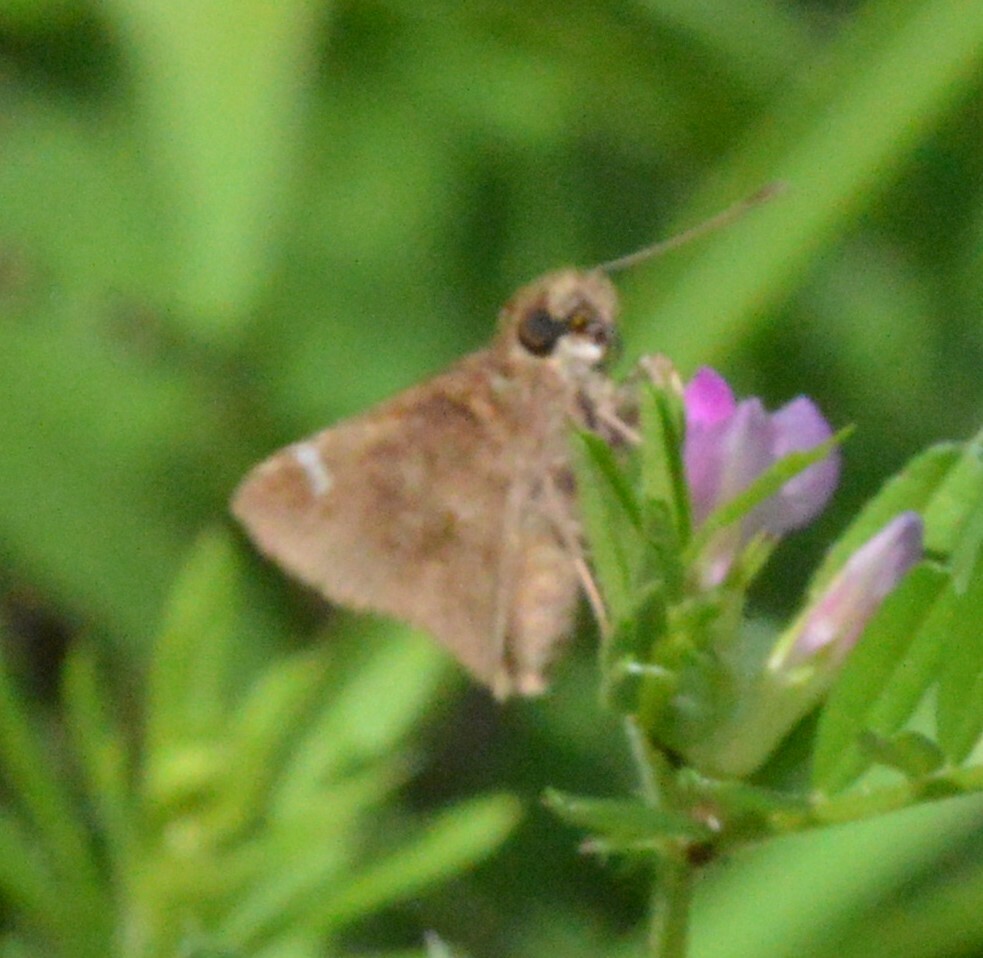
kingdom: Animalia
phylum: Arthropoda
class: Insecta
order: Lepidoptera
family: Hesperiidae
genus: Lerema
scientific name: Lerema accius
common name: Clouded skipper
